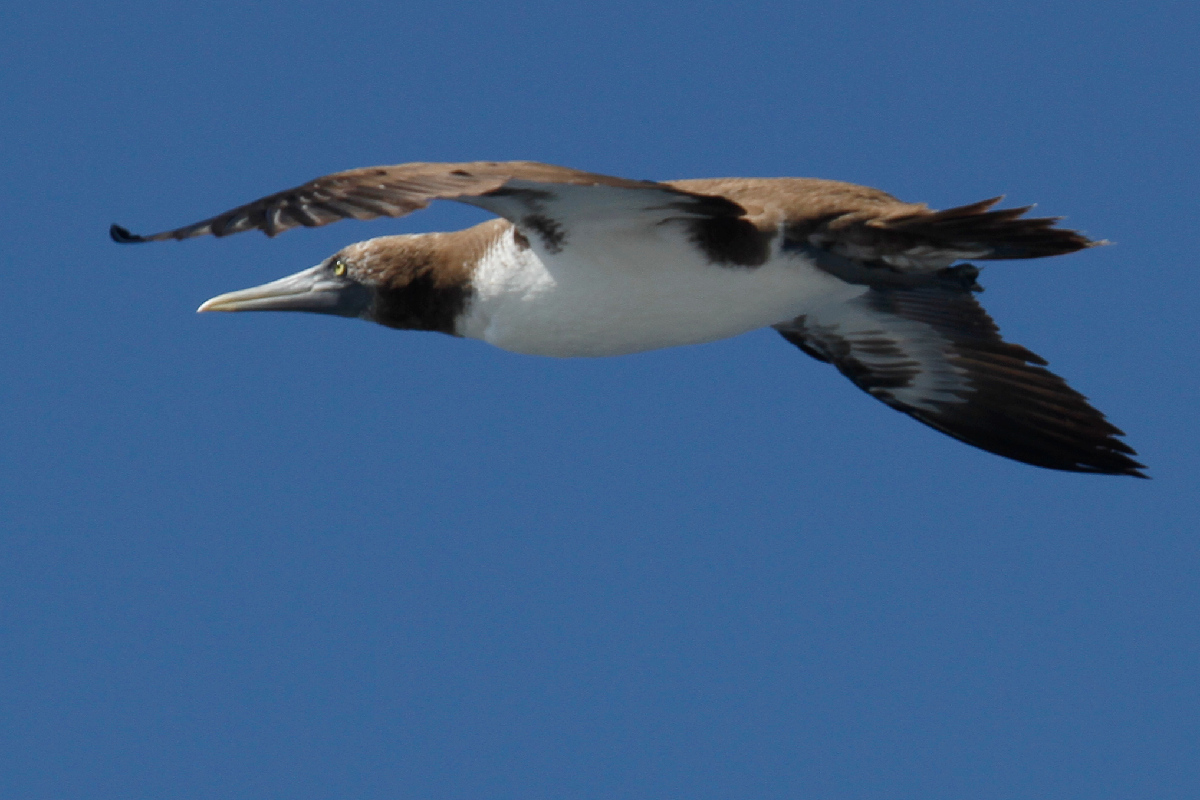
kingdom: Animalia
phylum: Chordata
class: Aves
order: Suliformes
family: Sulidae
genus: Sula
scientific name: Sula leucogaster
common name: Brown booby
